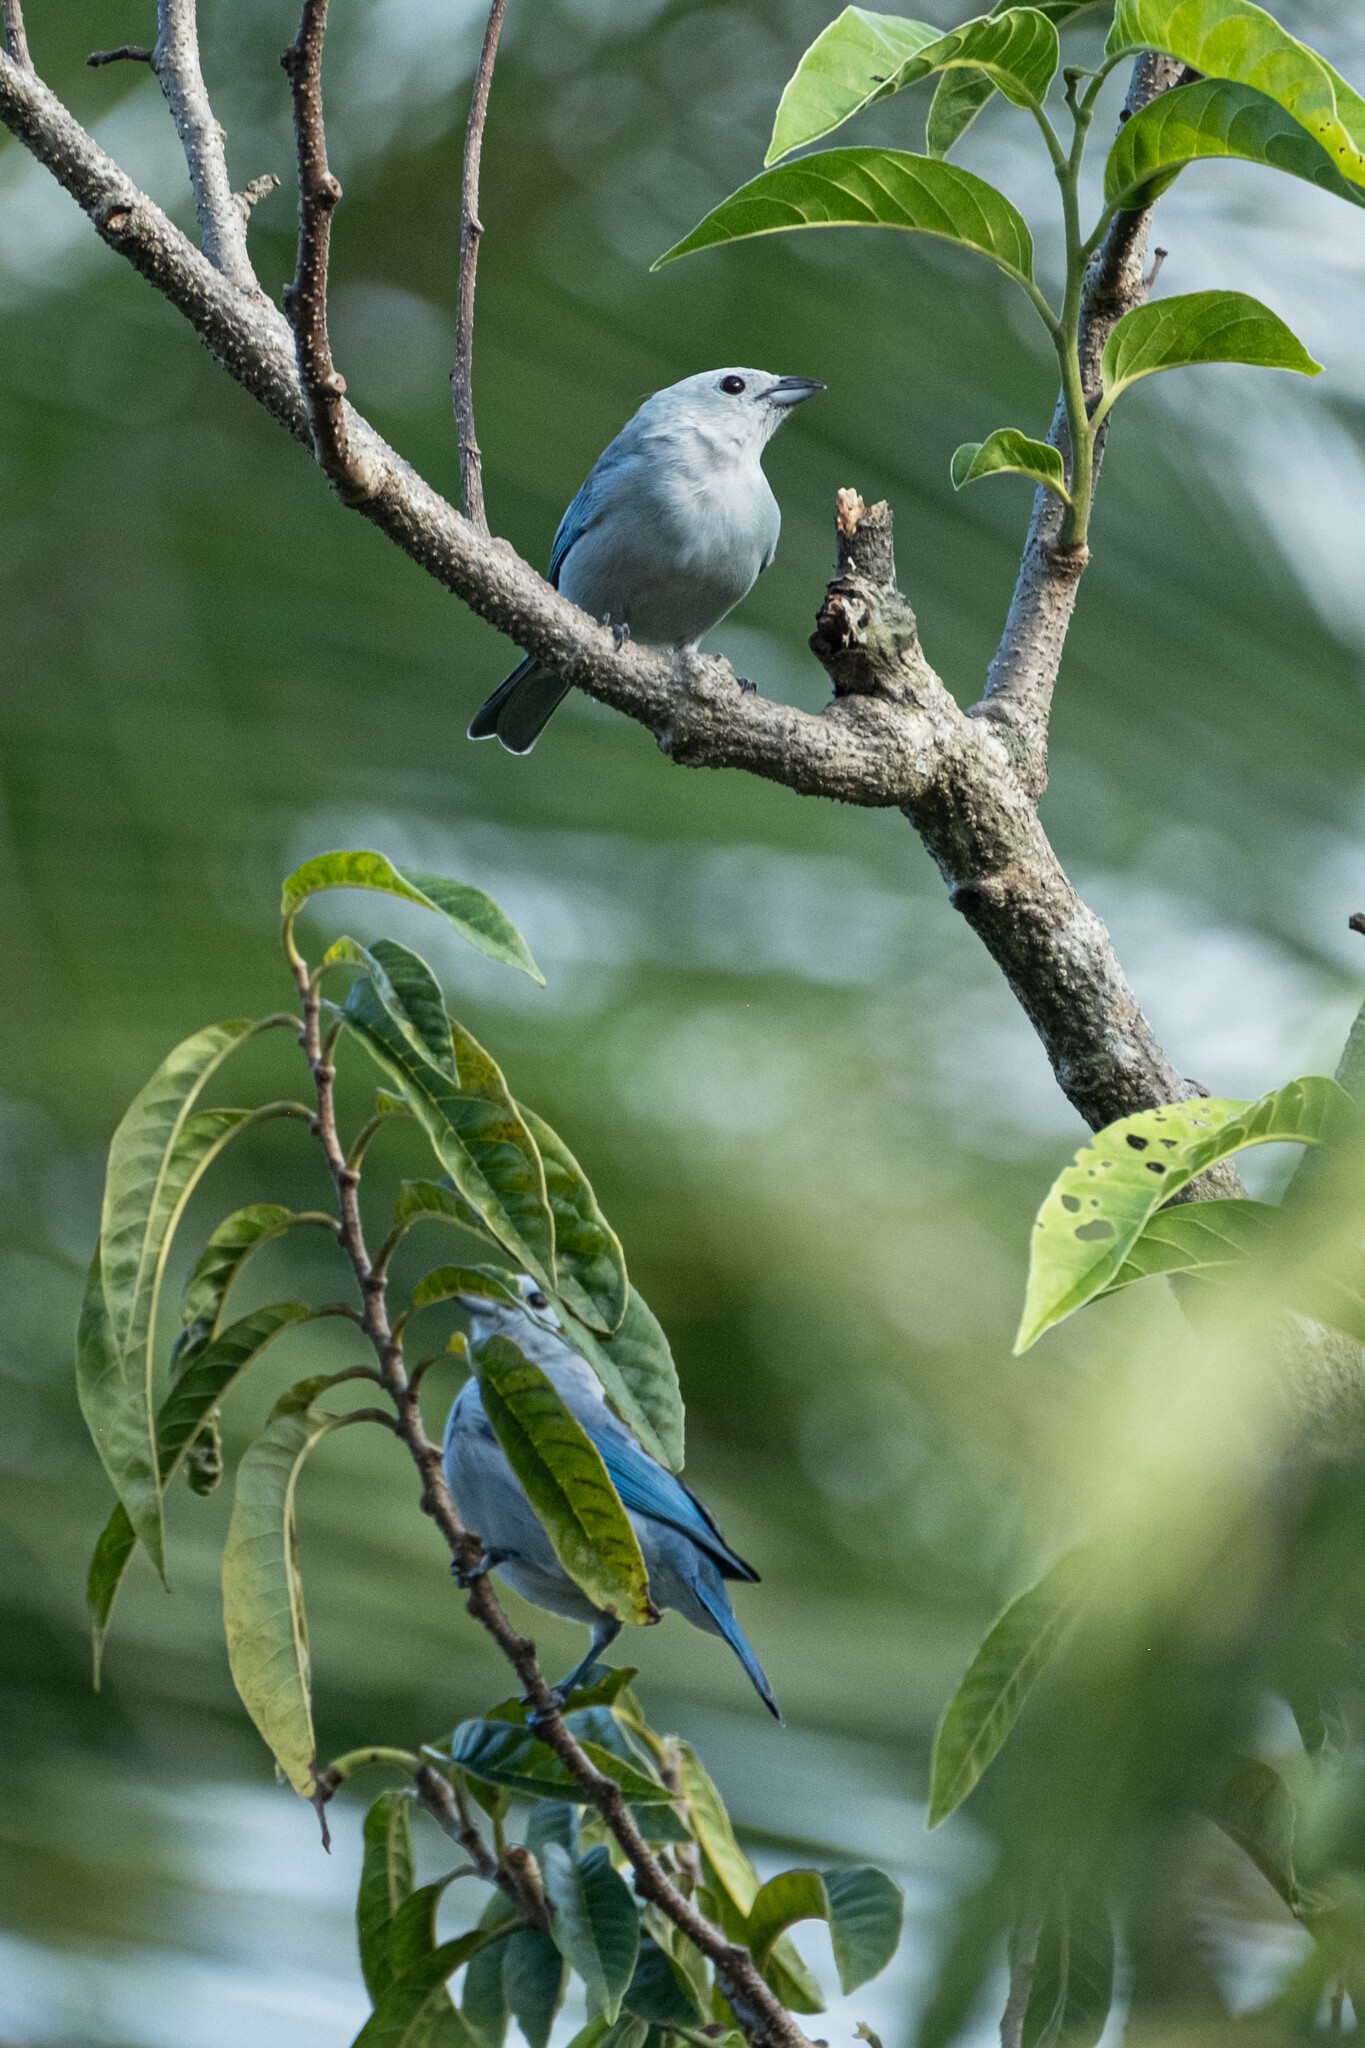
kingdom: Animalia
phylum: Chordata
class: Aves
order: Passeriformes
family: Thraupidae
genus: Thraupis
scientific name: Thraupis episcopus
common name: Blue-grey tanager
